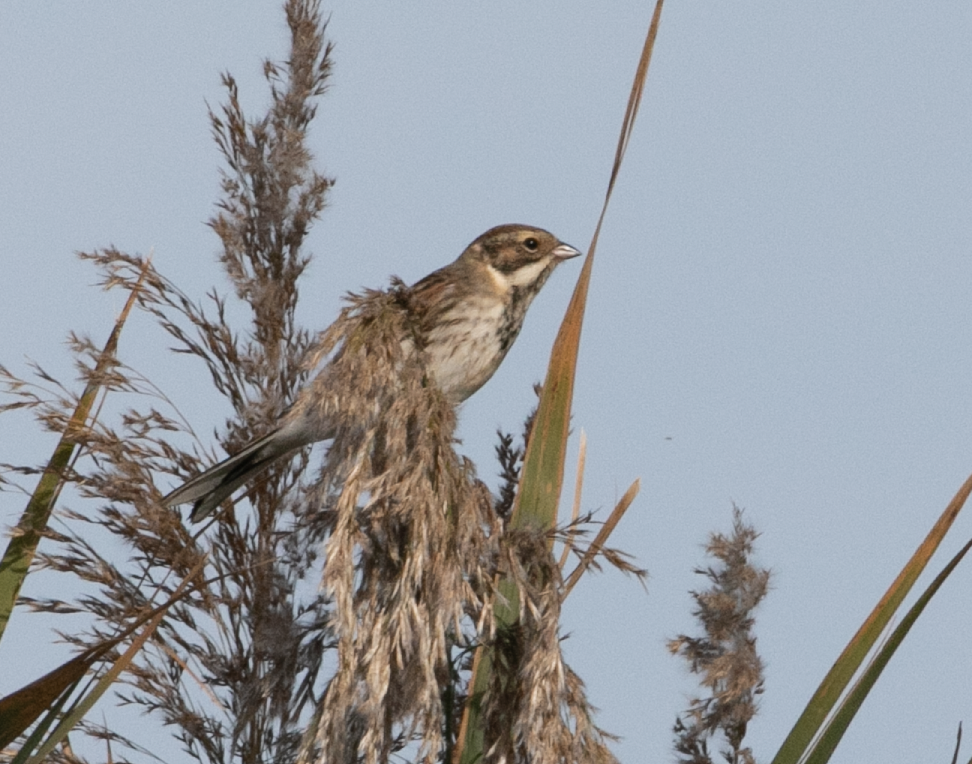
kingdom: Animalia
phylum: Chordata
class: Aves
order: Passeriformes
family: Emberizidae
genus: Emberiza
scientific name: Emberiza schoeniclus
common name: Reed bunting
